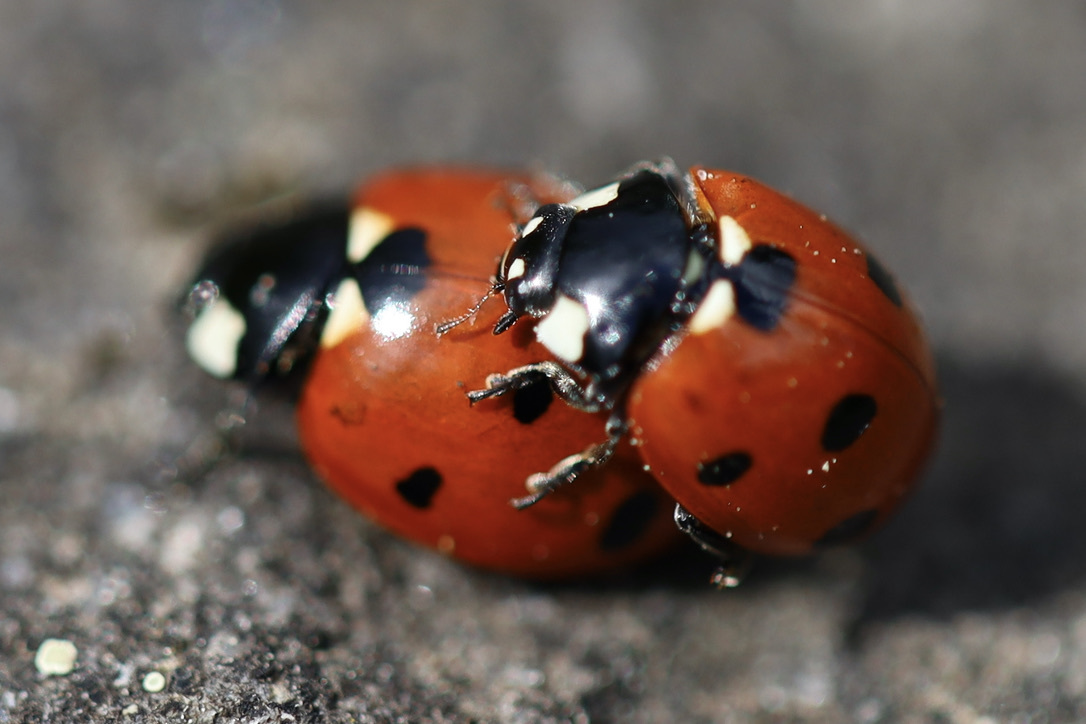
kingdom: Animalia
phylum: Arthropoda
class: Insecta
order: Coleoptera
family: Coccinellidae
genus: Coccinella
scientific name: Coccinella septempunctata
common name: Sevenspotted lady beetle
